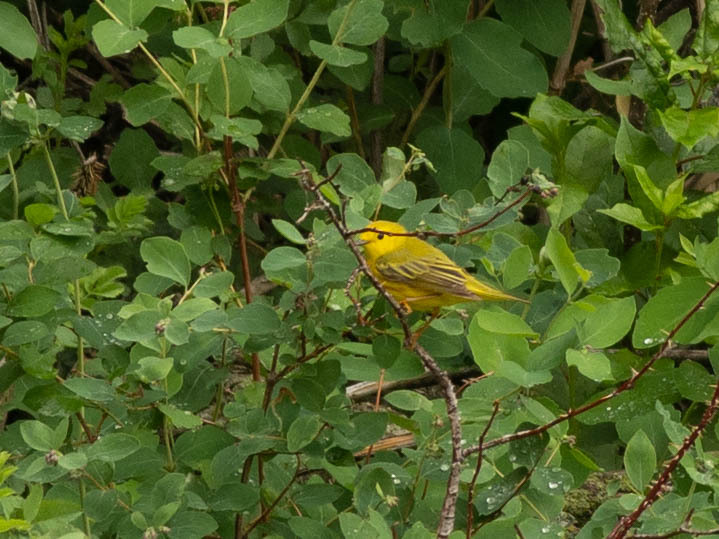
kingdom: Animalia
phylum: Chordata
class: Aves
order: Passeriformes
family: Parulidae
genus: Setophaga
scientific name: Setophaga petechia
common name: Yellow warbler
